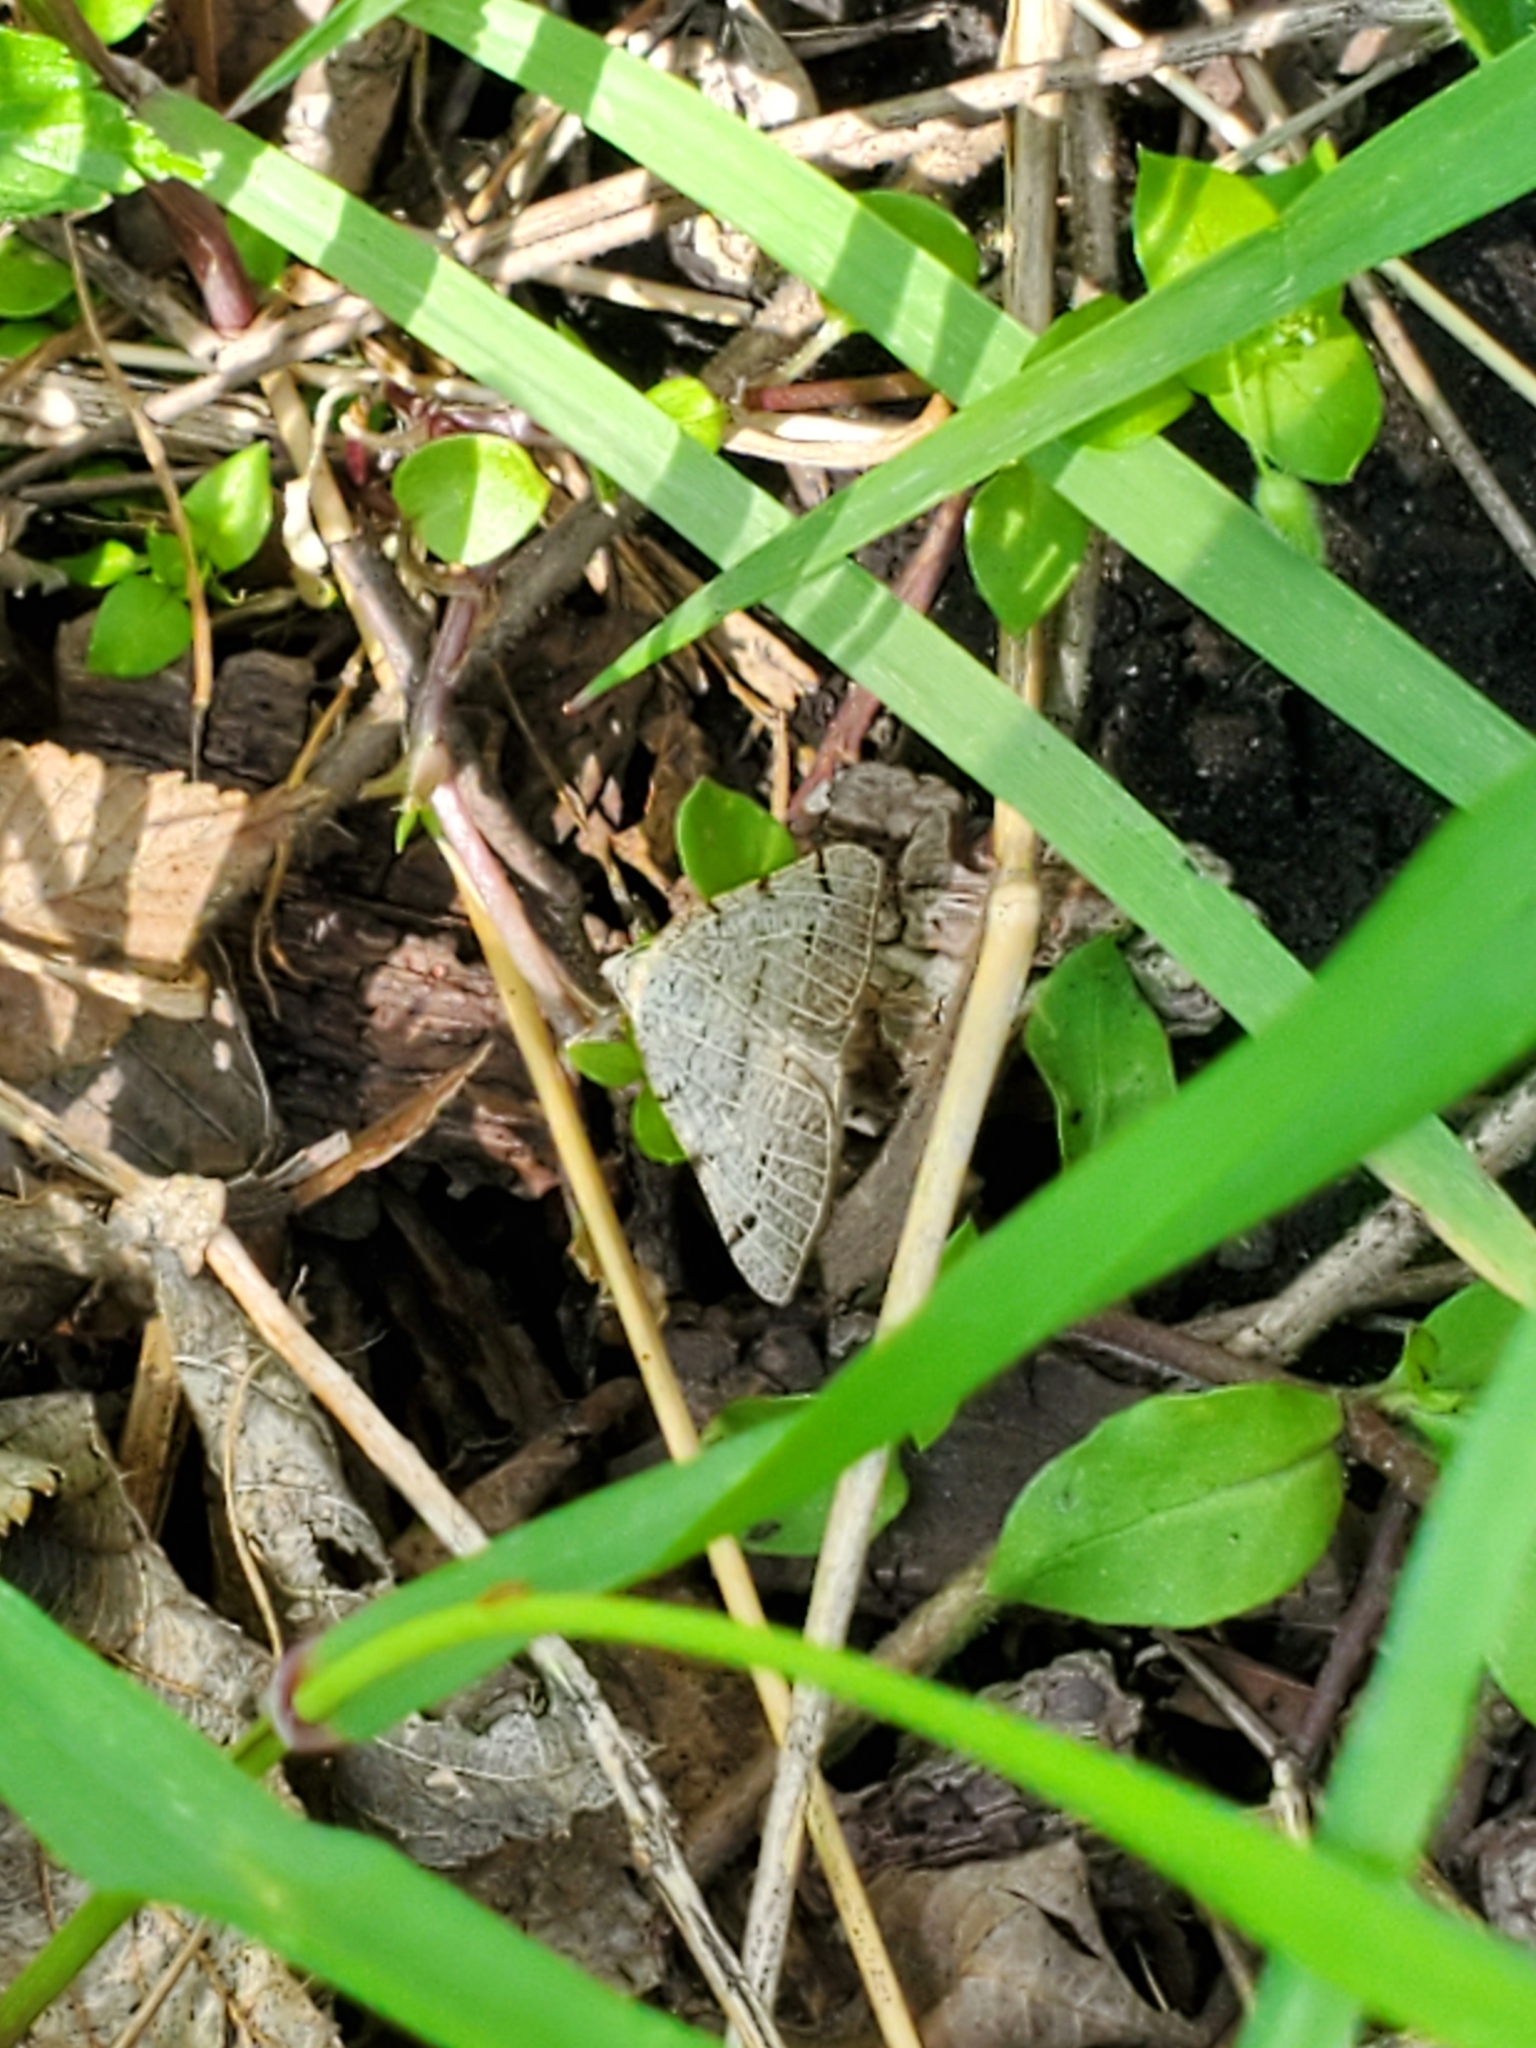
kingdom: Animalia
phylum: Arthropoda
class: Insecta
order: Lepidoptera
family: Geometridae
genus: Isturgia
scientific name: Isturgia dislocaria
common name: Pale-viened enconista
